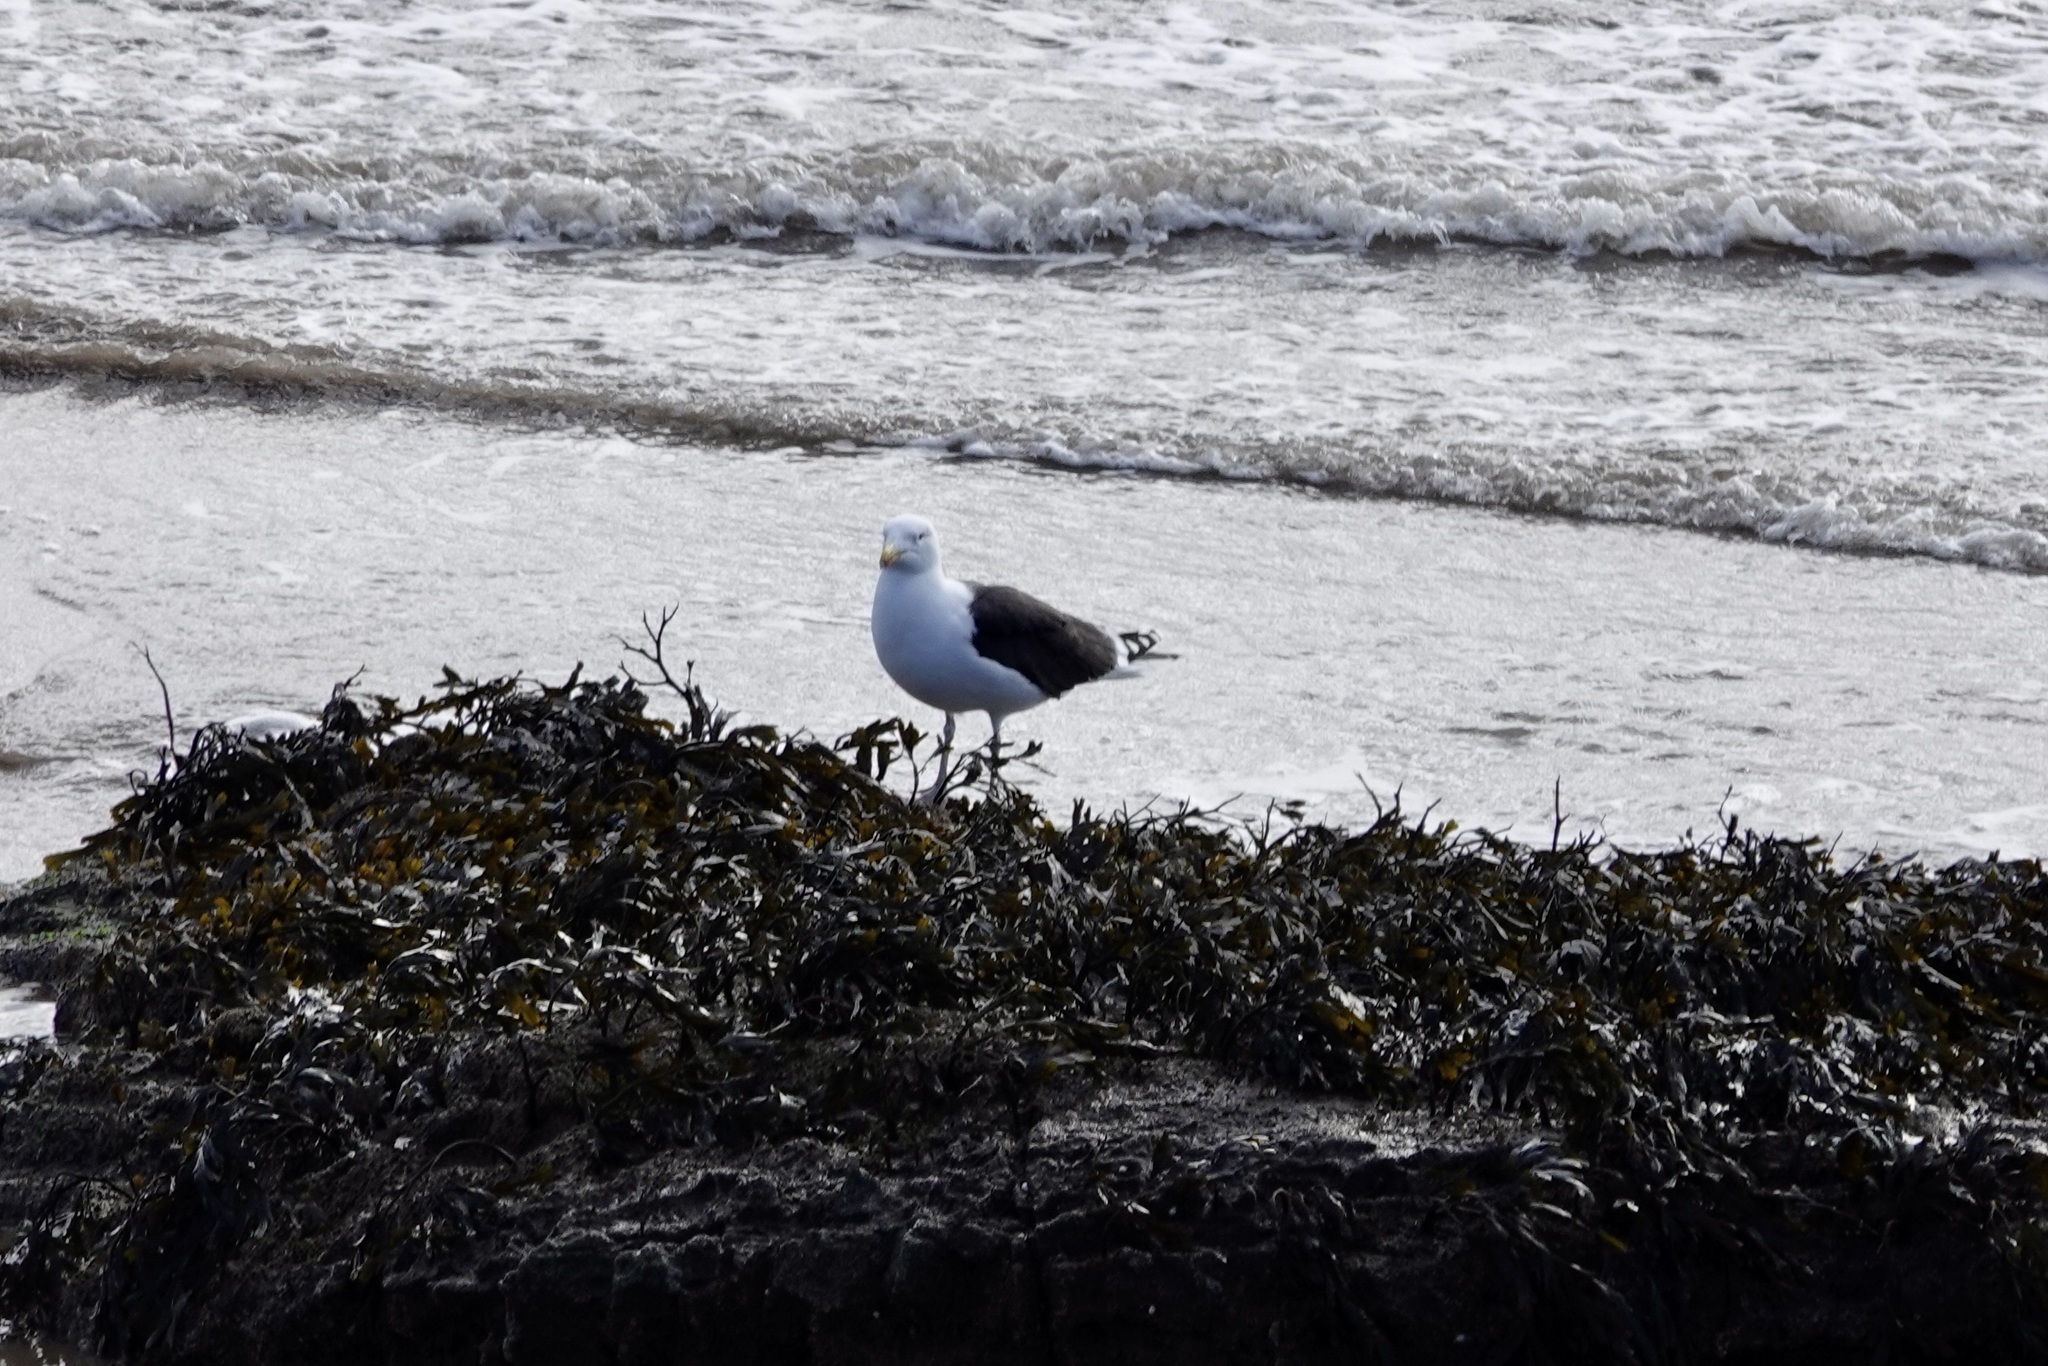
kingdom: Animalia
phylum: Chordata
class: Aves
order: Charadriiformes
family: Laridae
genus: Larus
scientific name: Larus marinus
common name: Great black-backed gull
